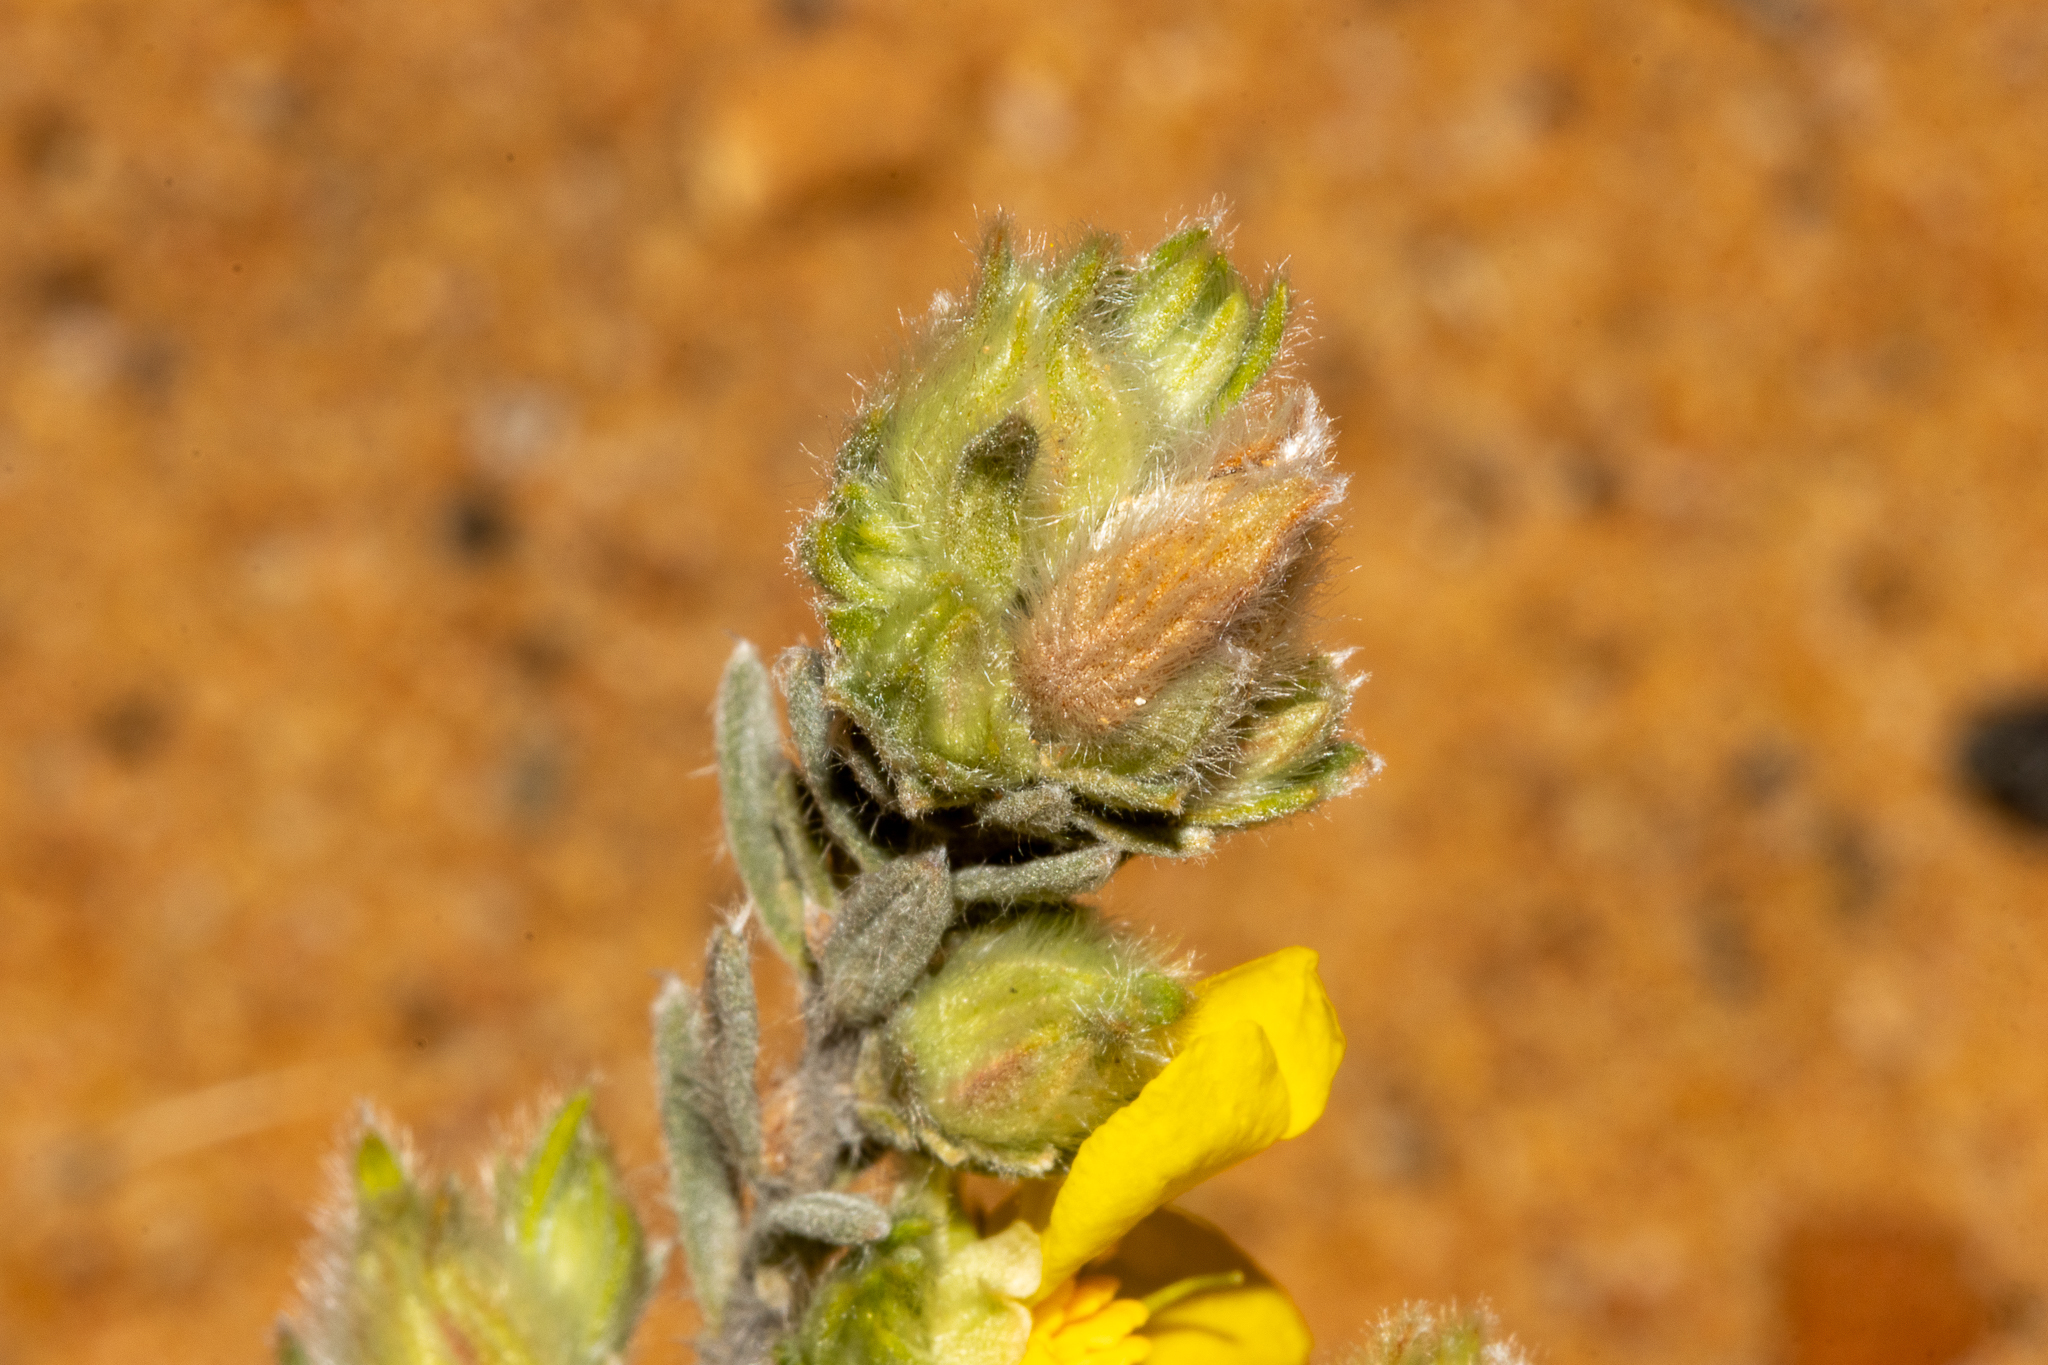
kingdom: Plantae
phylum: Tracheophyta
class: Magnoliopsida
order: Dilleniales
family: Dilleniaceae
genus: Hibbertia
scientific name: Hibbertia crinita
